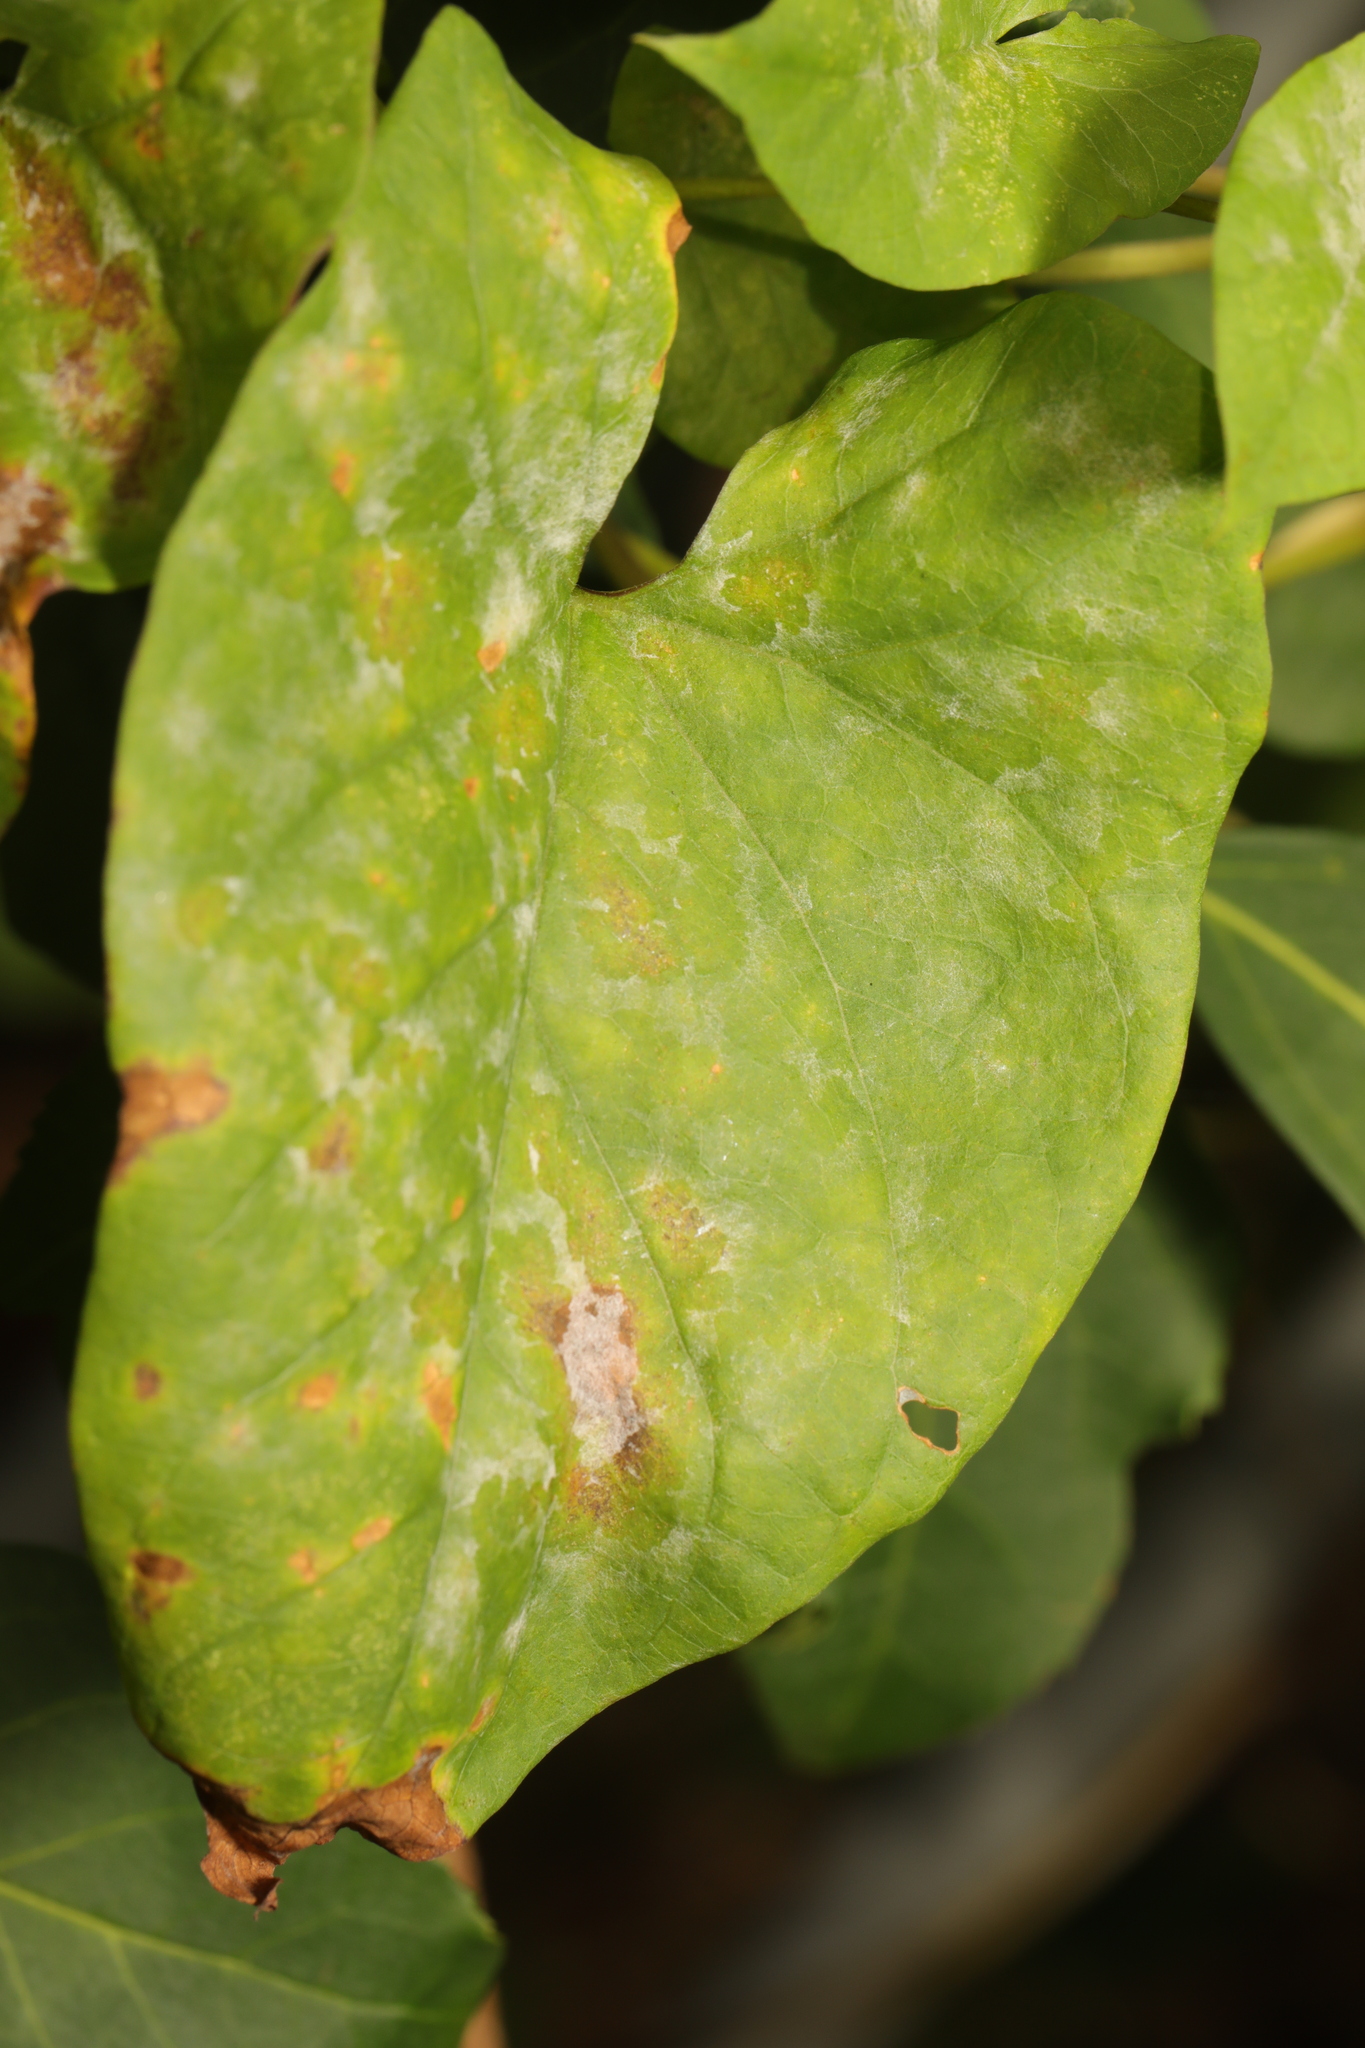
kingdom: Fungi
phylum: Ascomycota
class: Leotiomycetes
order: Helotiales
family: Erysiphaceae
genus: Erysiphe
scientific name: Erysiphe convolvuli
